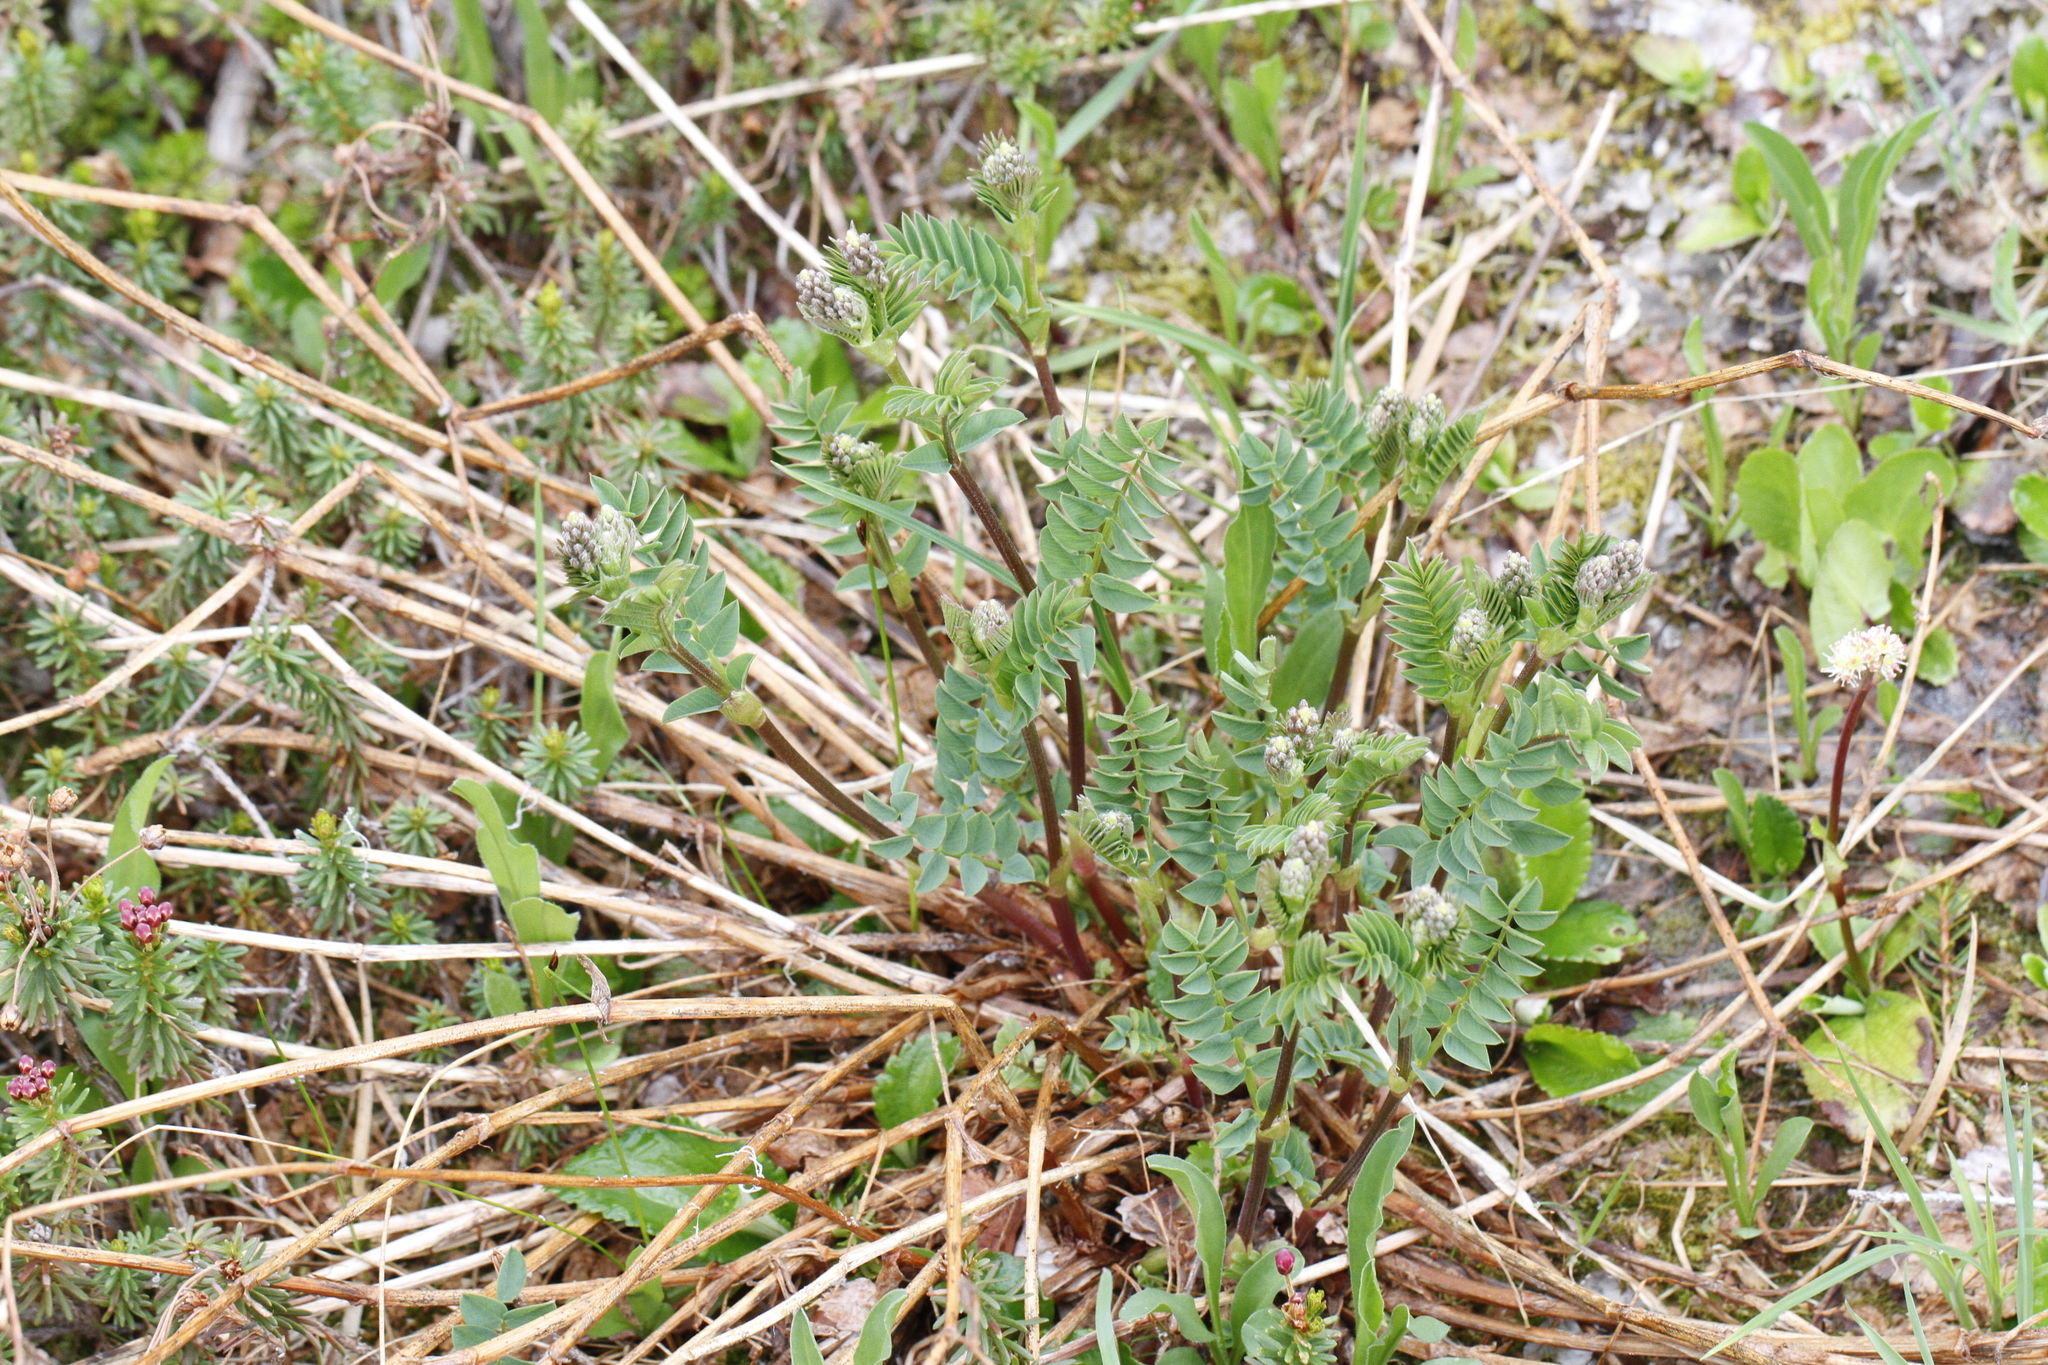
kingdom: Plantae
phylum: Tracheophyta
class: Magnoliopsida
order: Fabales
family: Fabaceae
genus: Hedysarum
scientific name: Hedysarum occidentale
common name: Western hedysarum
